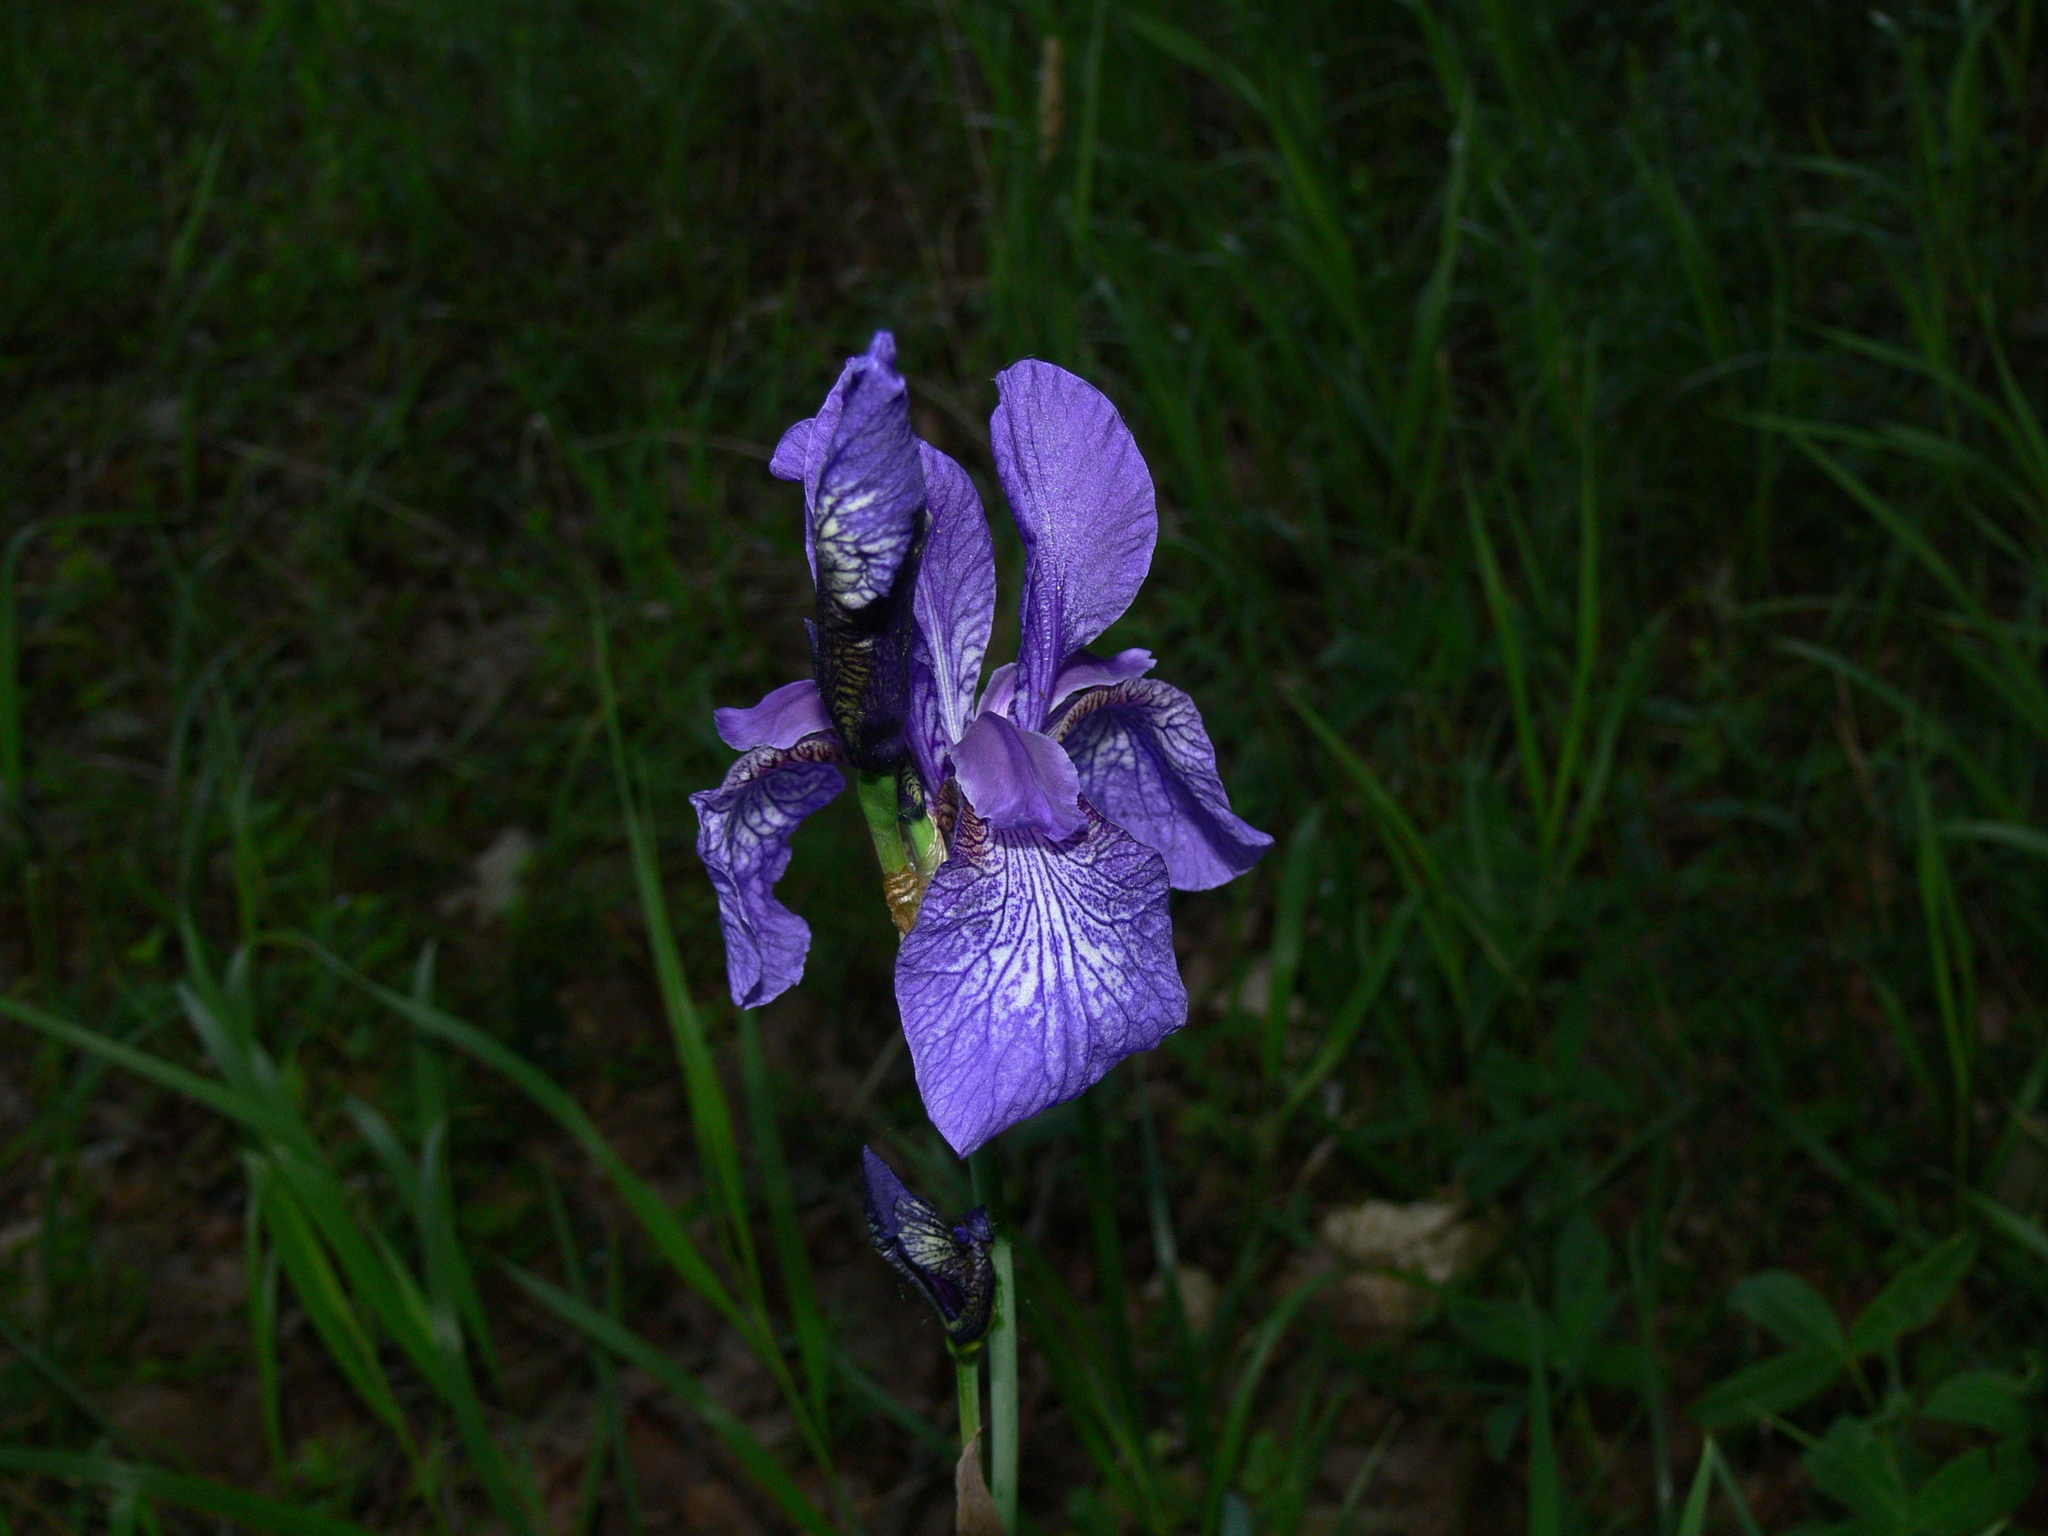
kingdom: Plantae
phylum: Tracheophyta
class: Liliopsida
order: Asparagales
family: Iridaceae
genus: Iris
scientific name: Iris sibirica
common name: Siberian iris
